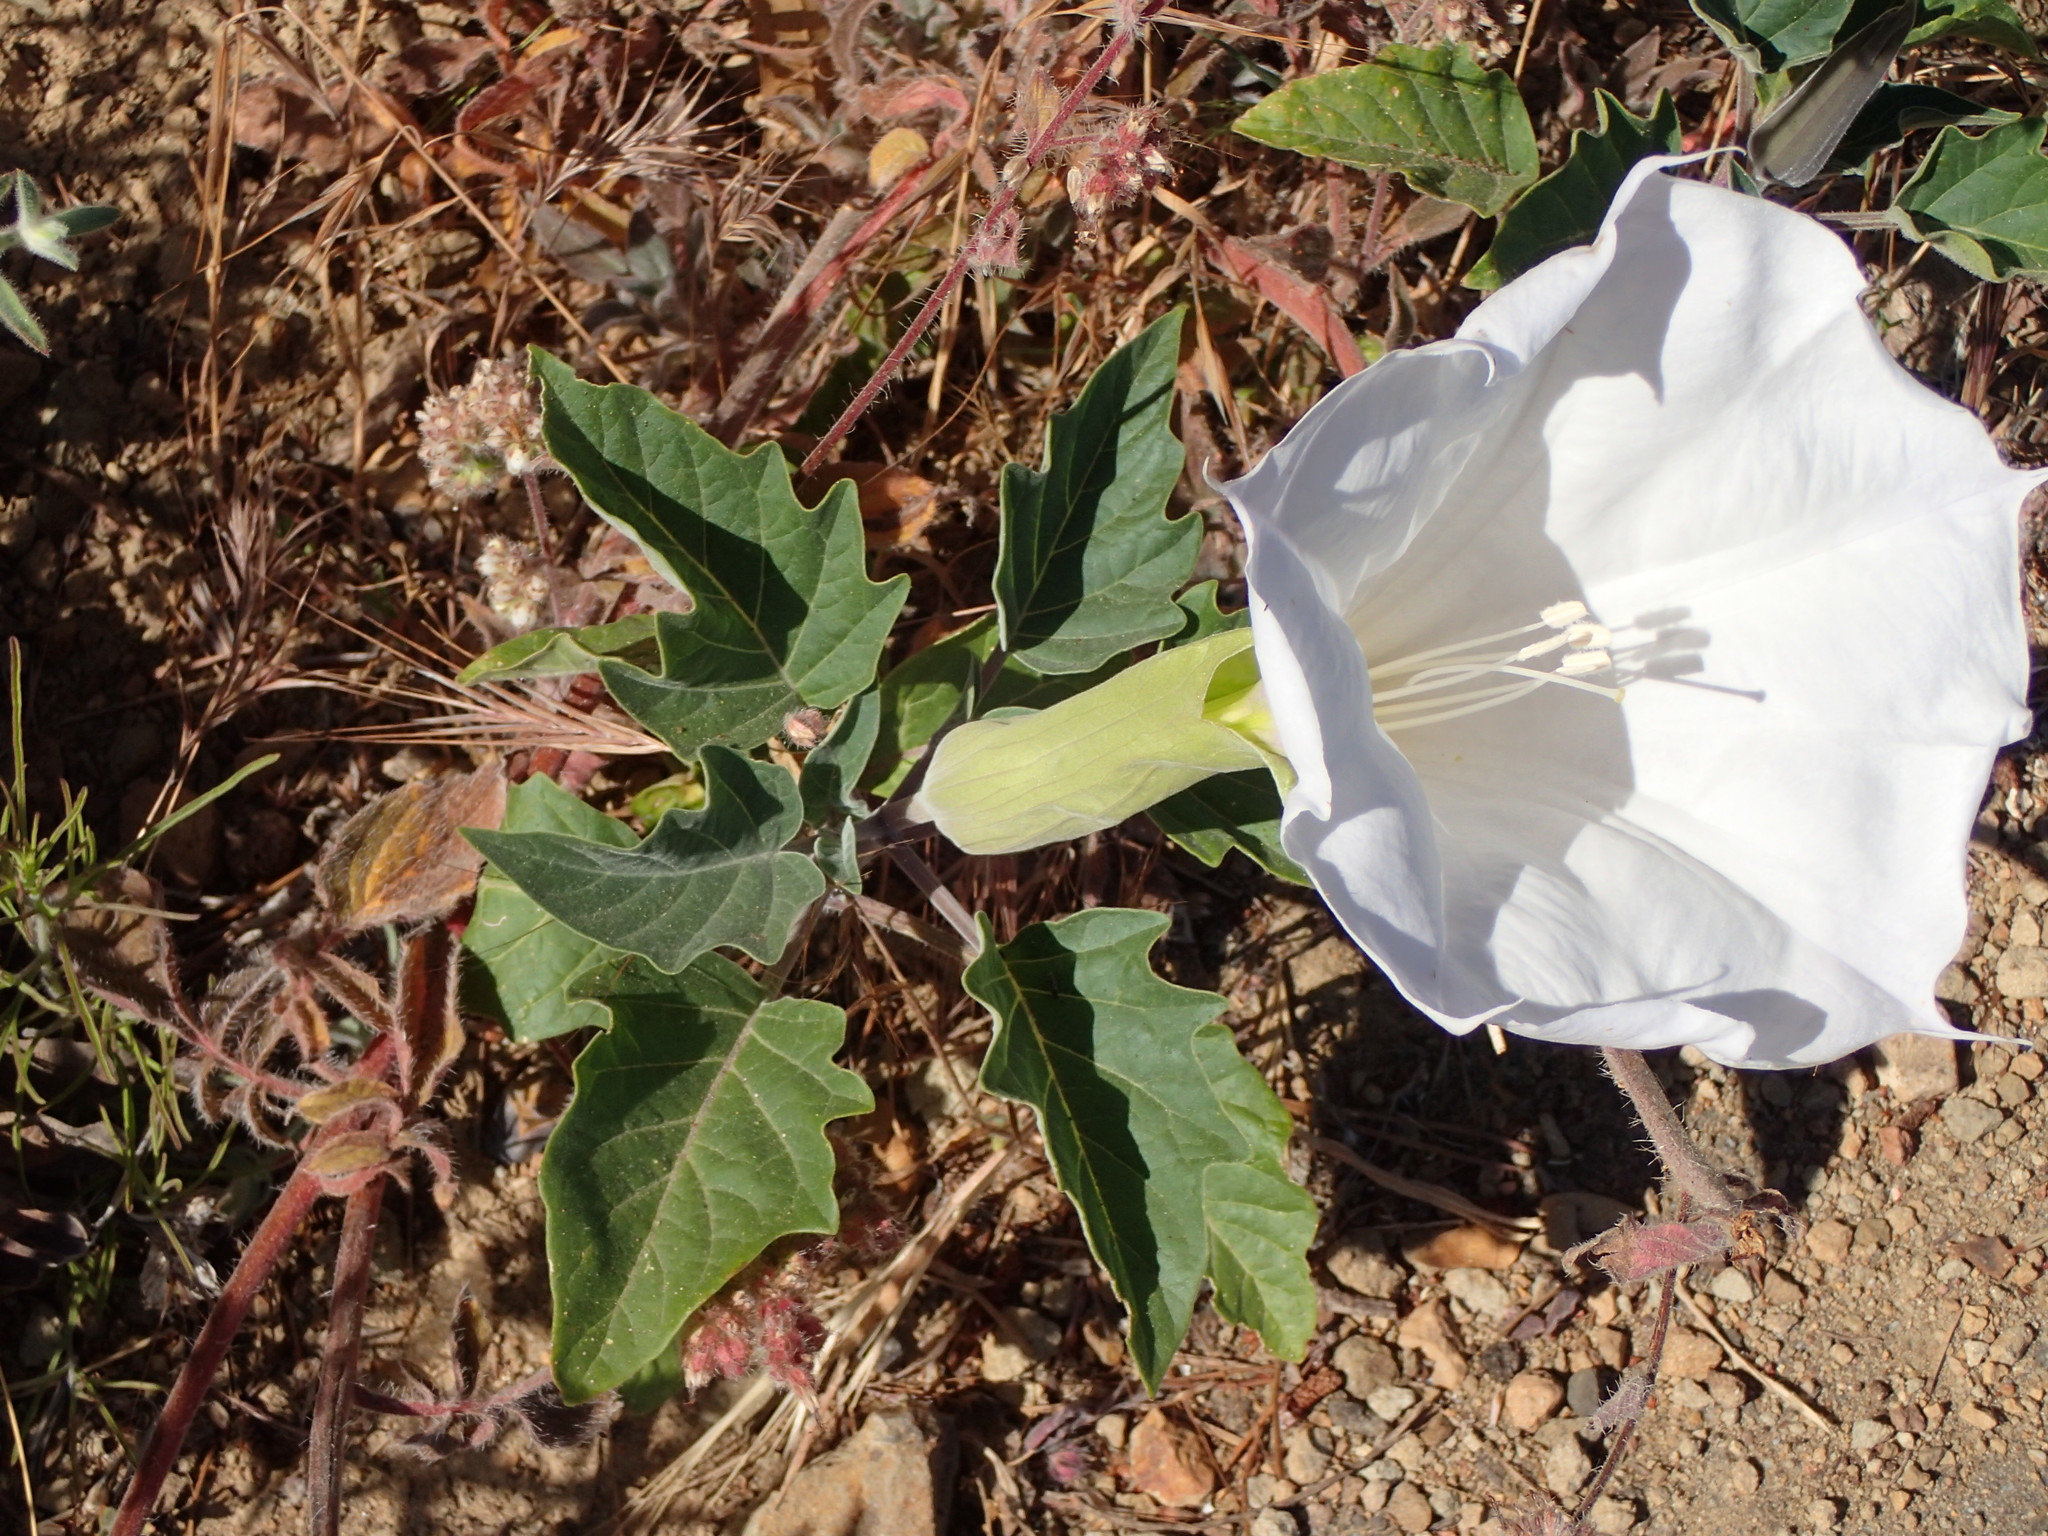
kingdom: Plantae
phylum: Tracheophyta
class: Magnoliopsida
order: Solanales
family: Solanaceae
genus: Datura
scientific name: Datura wrightii
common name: Sacred thorn-apple
